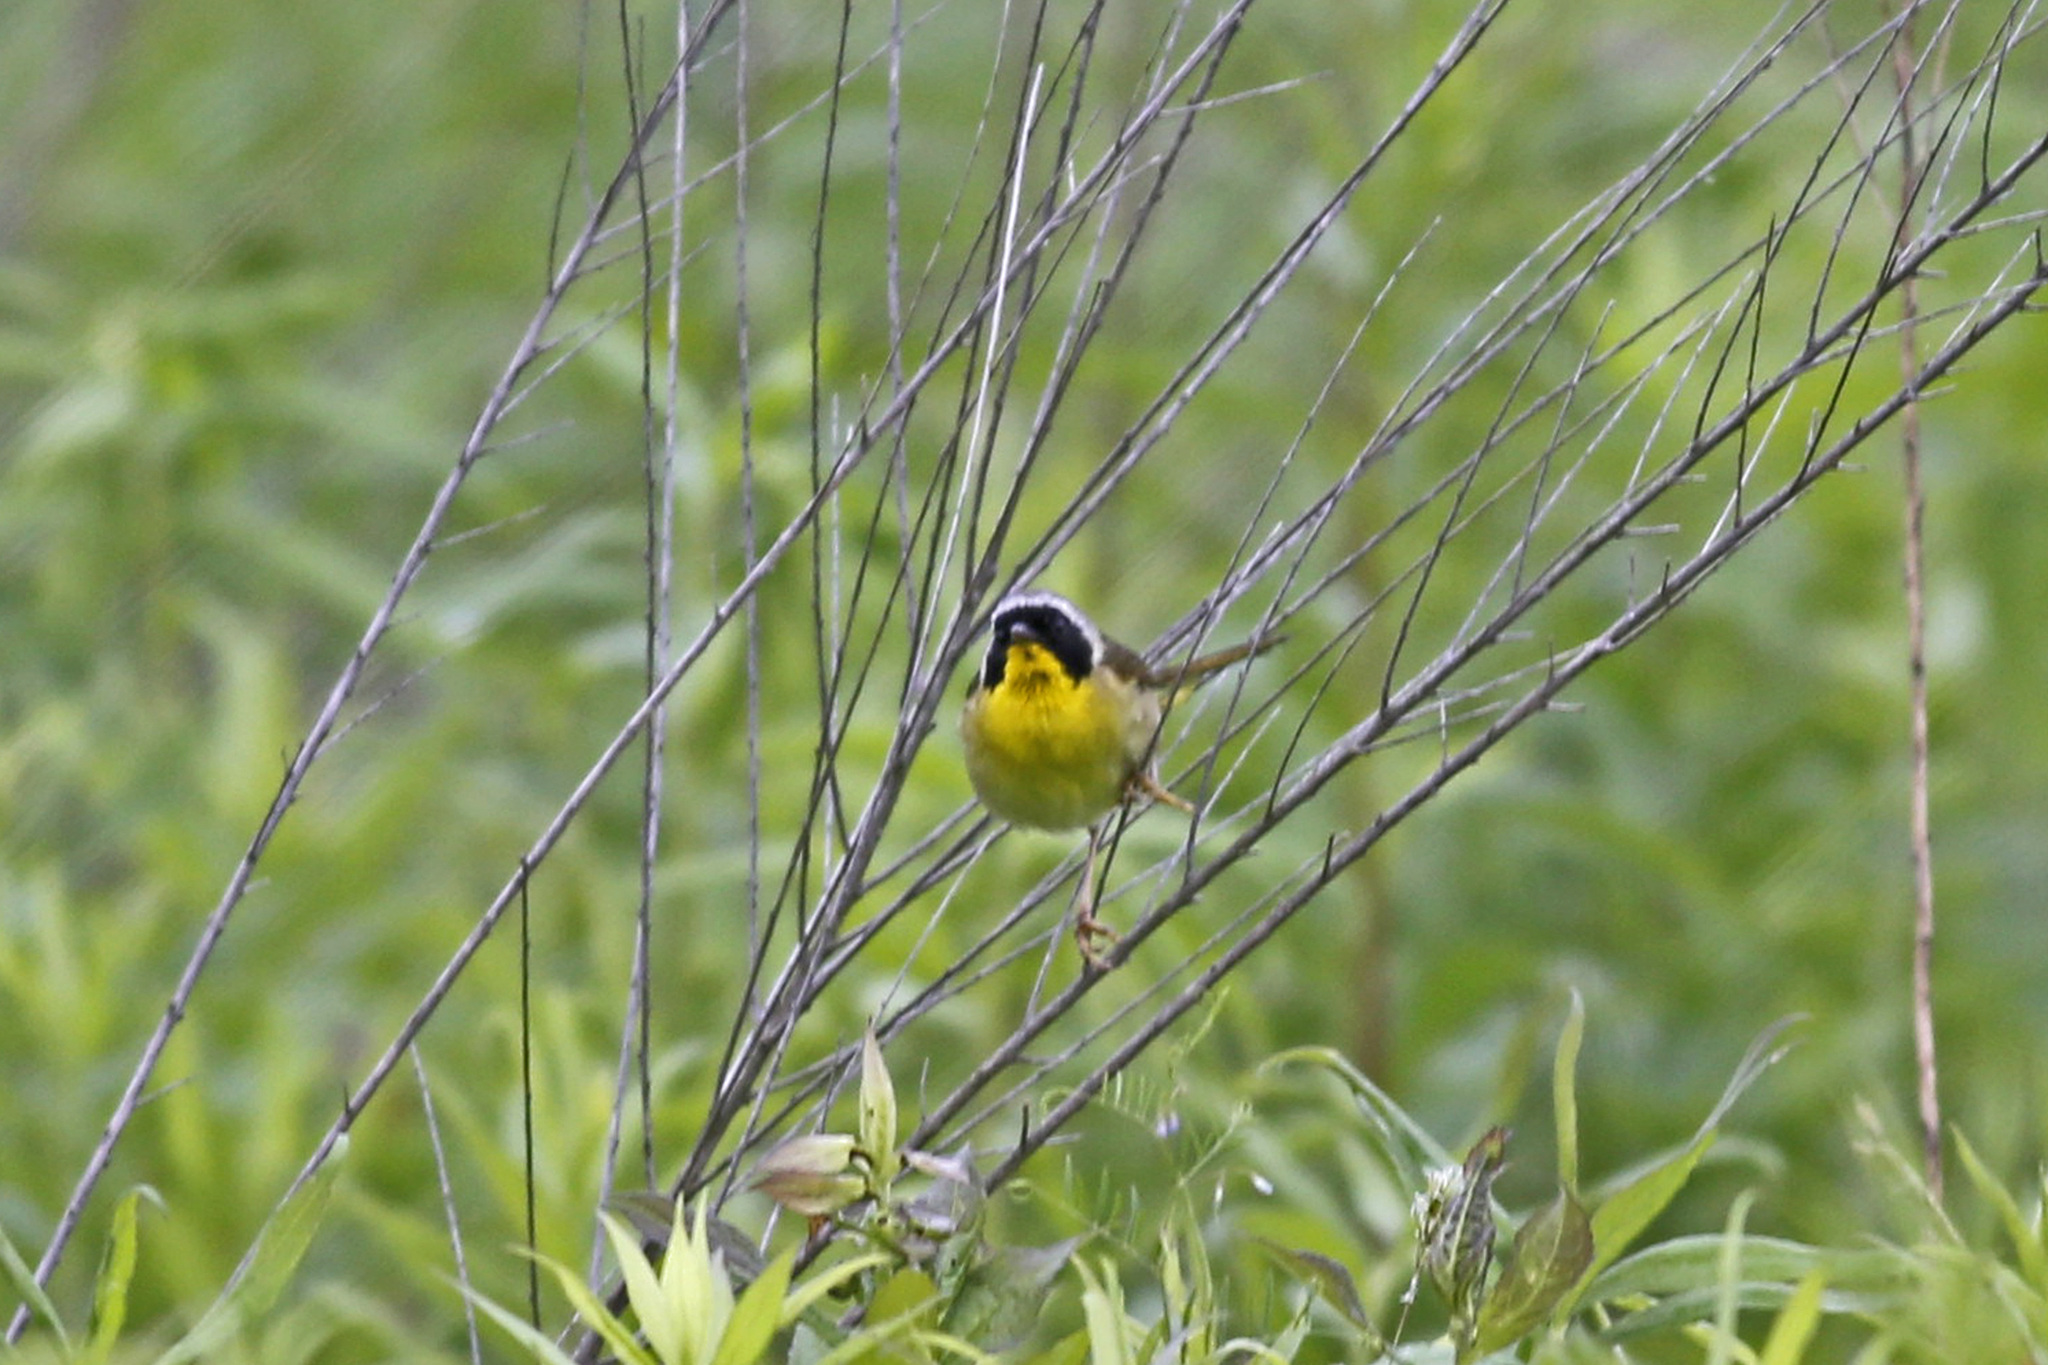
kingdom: Animalia
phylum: Chordata
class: Aves
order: Passeriformes
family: Parulidae
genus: Geothlypis
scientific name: Geothlypis trichas
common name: Common yellowthroat
